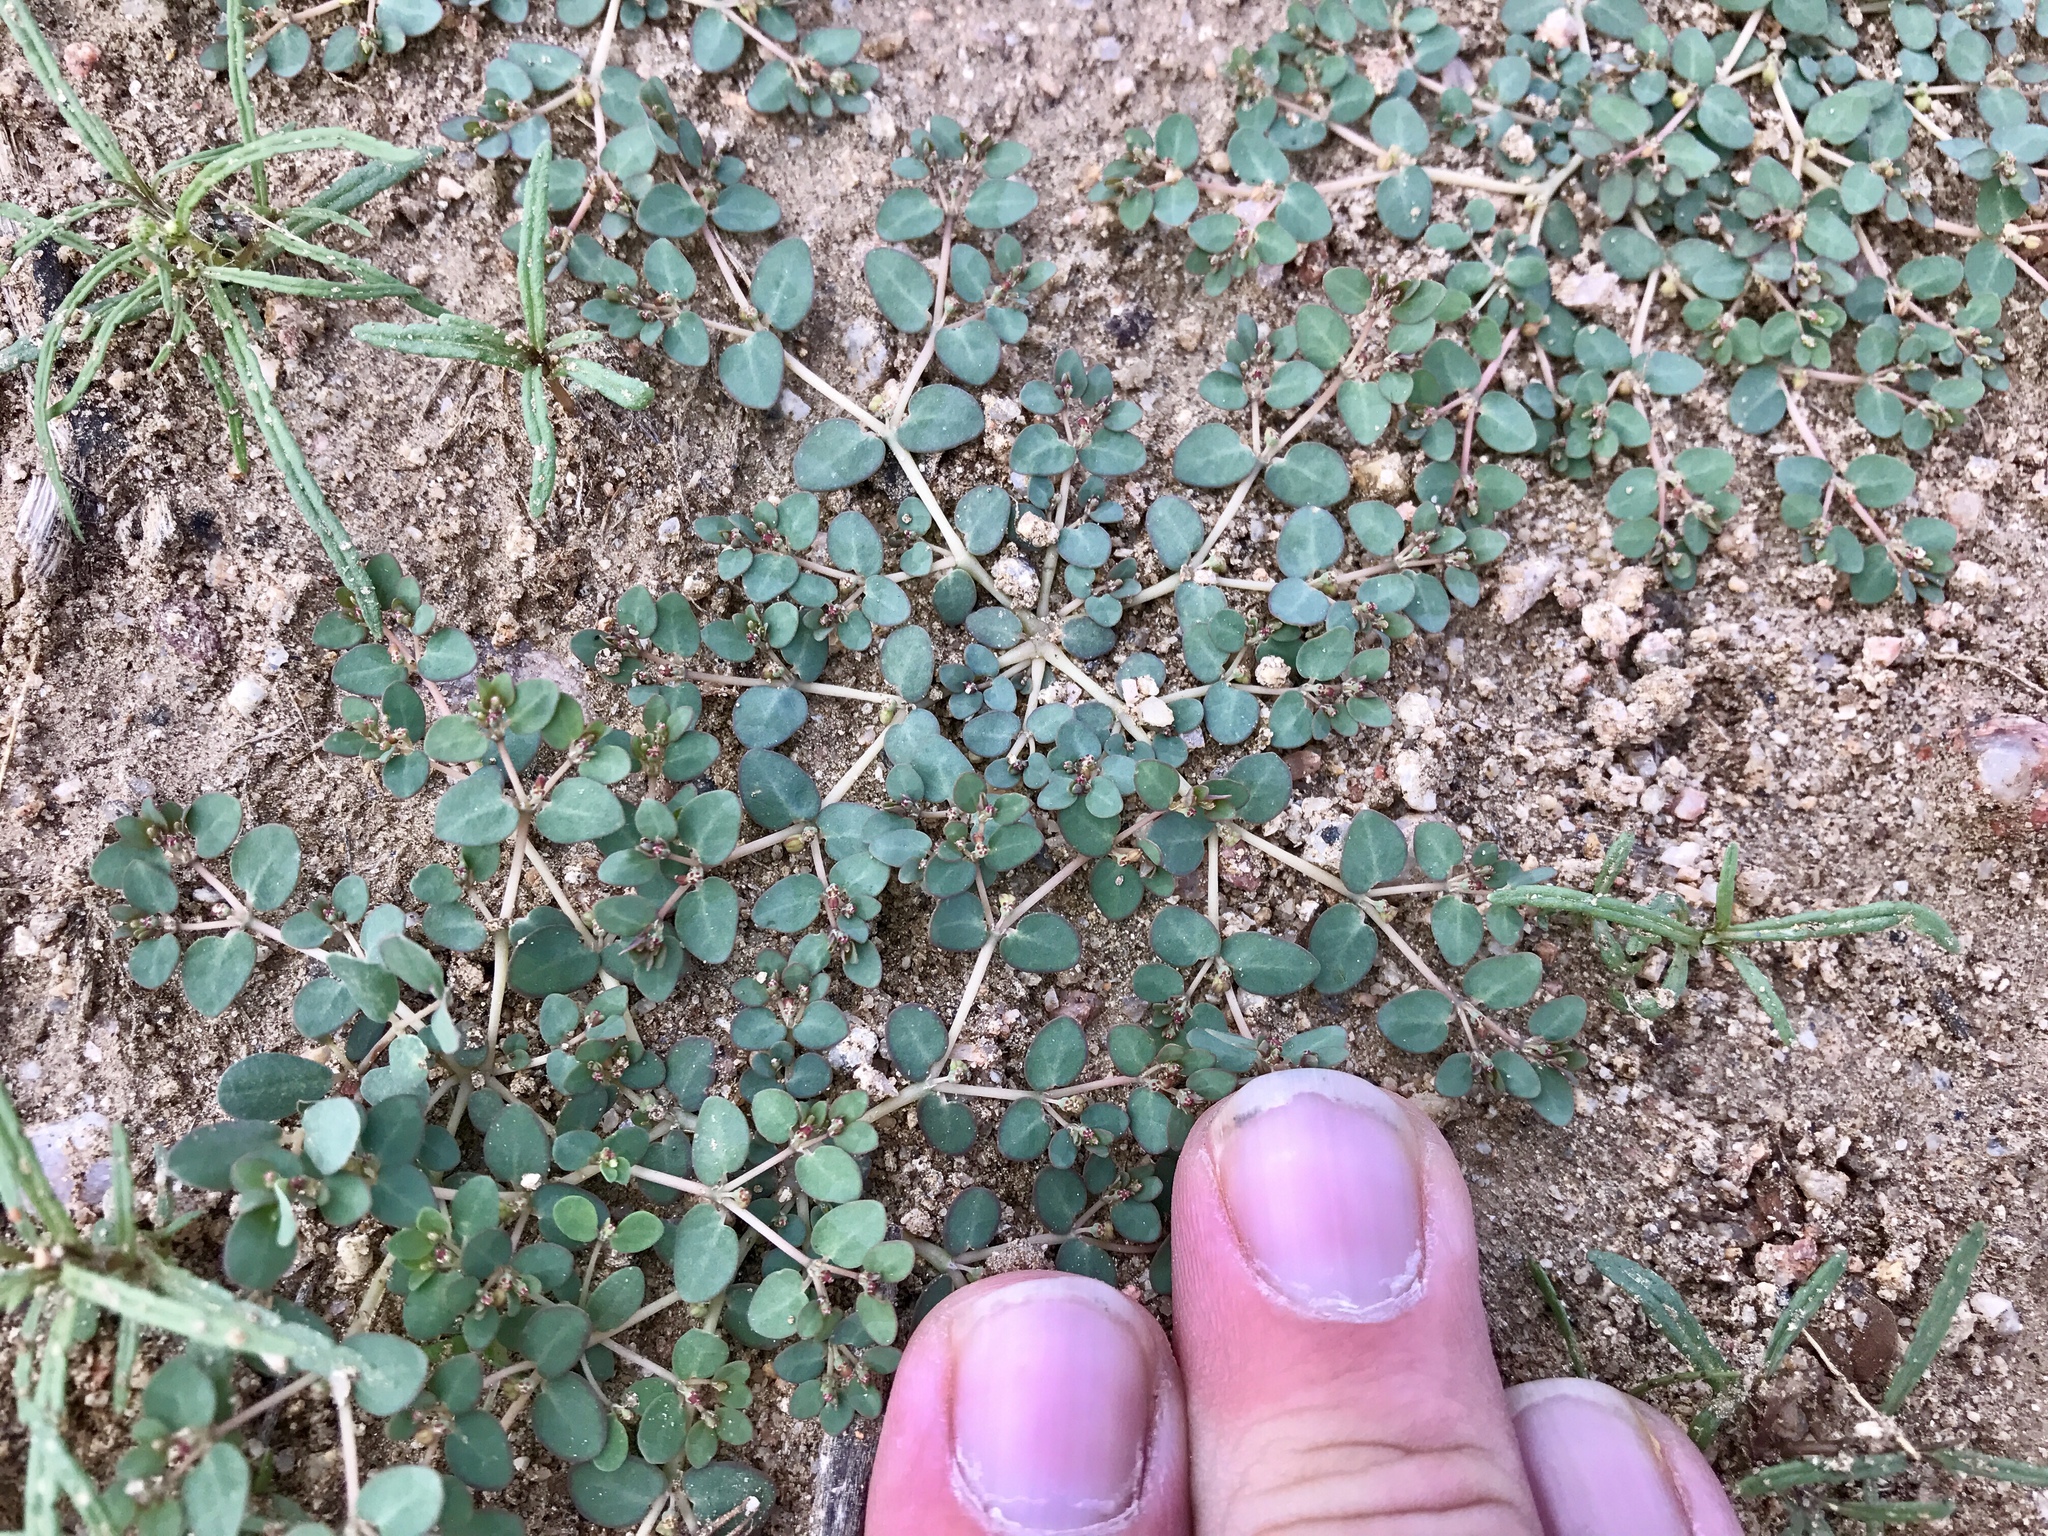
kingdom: Plantae
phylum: Tracheophyta
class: Magnoliopsida
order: Malpighiales
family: Euphorbiaceae
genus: Euphorbia
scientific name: Euphorbia micromera
